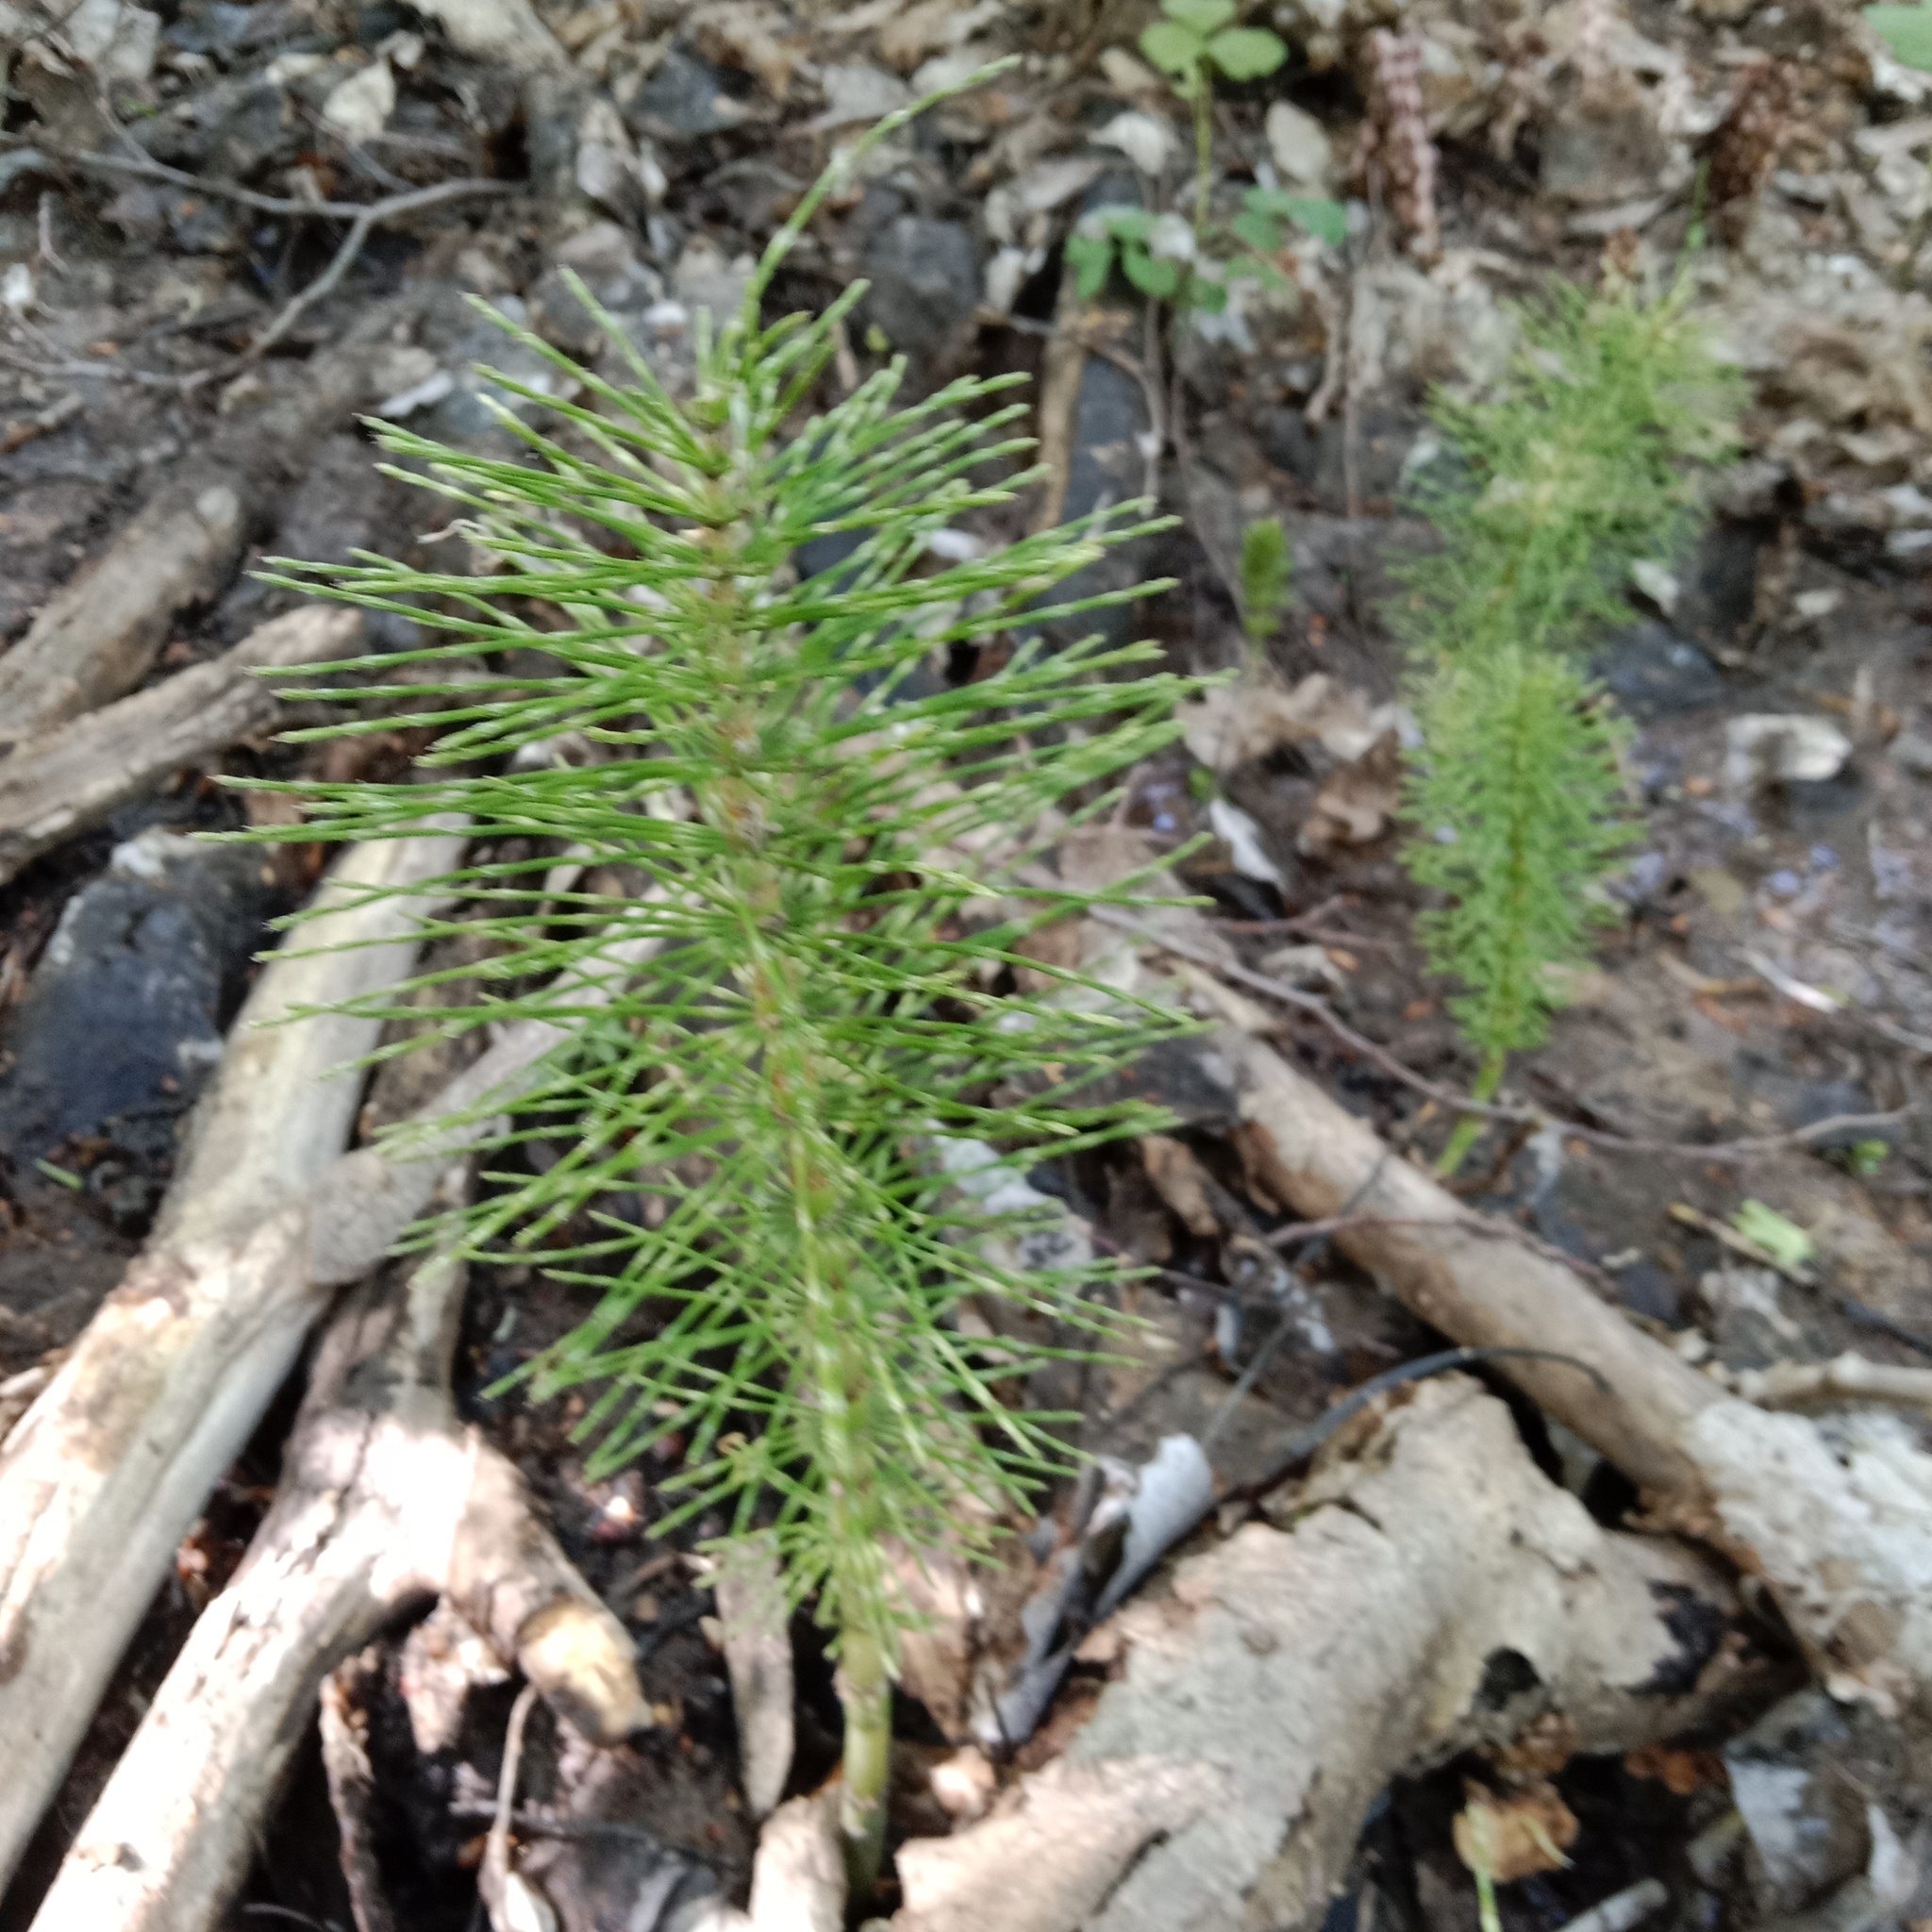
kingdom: Plantae
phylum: Tracheophyta
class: Polypodiopsida
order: Equisetales
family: Equisetaceae
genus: Equisetum
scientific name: Equisetum telmateia
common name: Great horsetail
